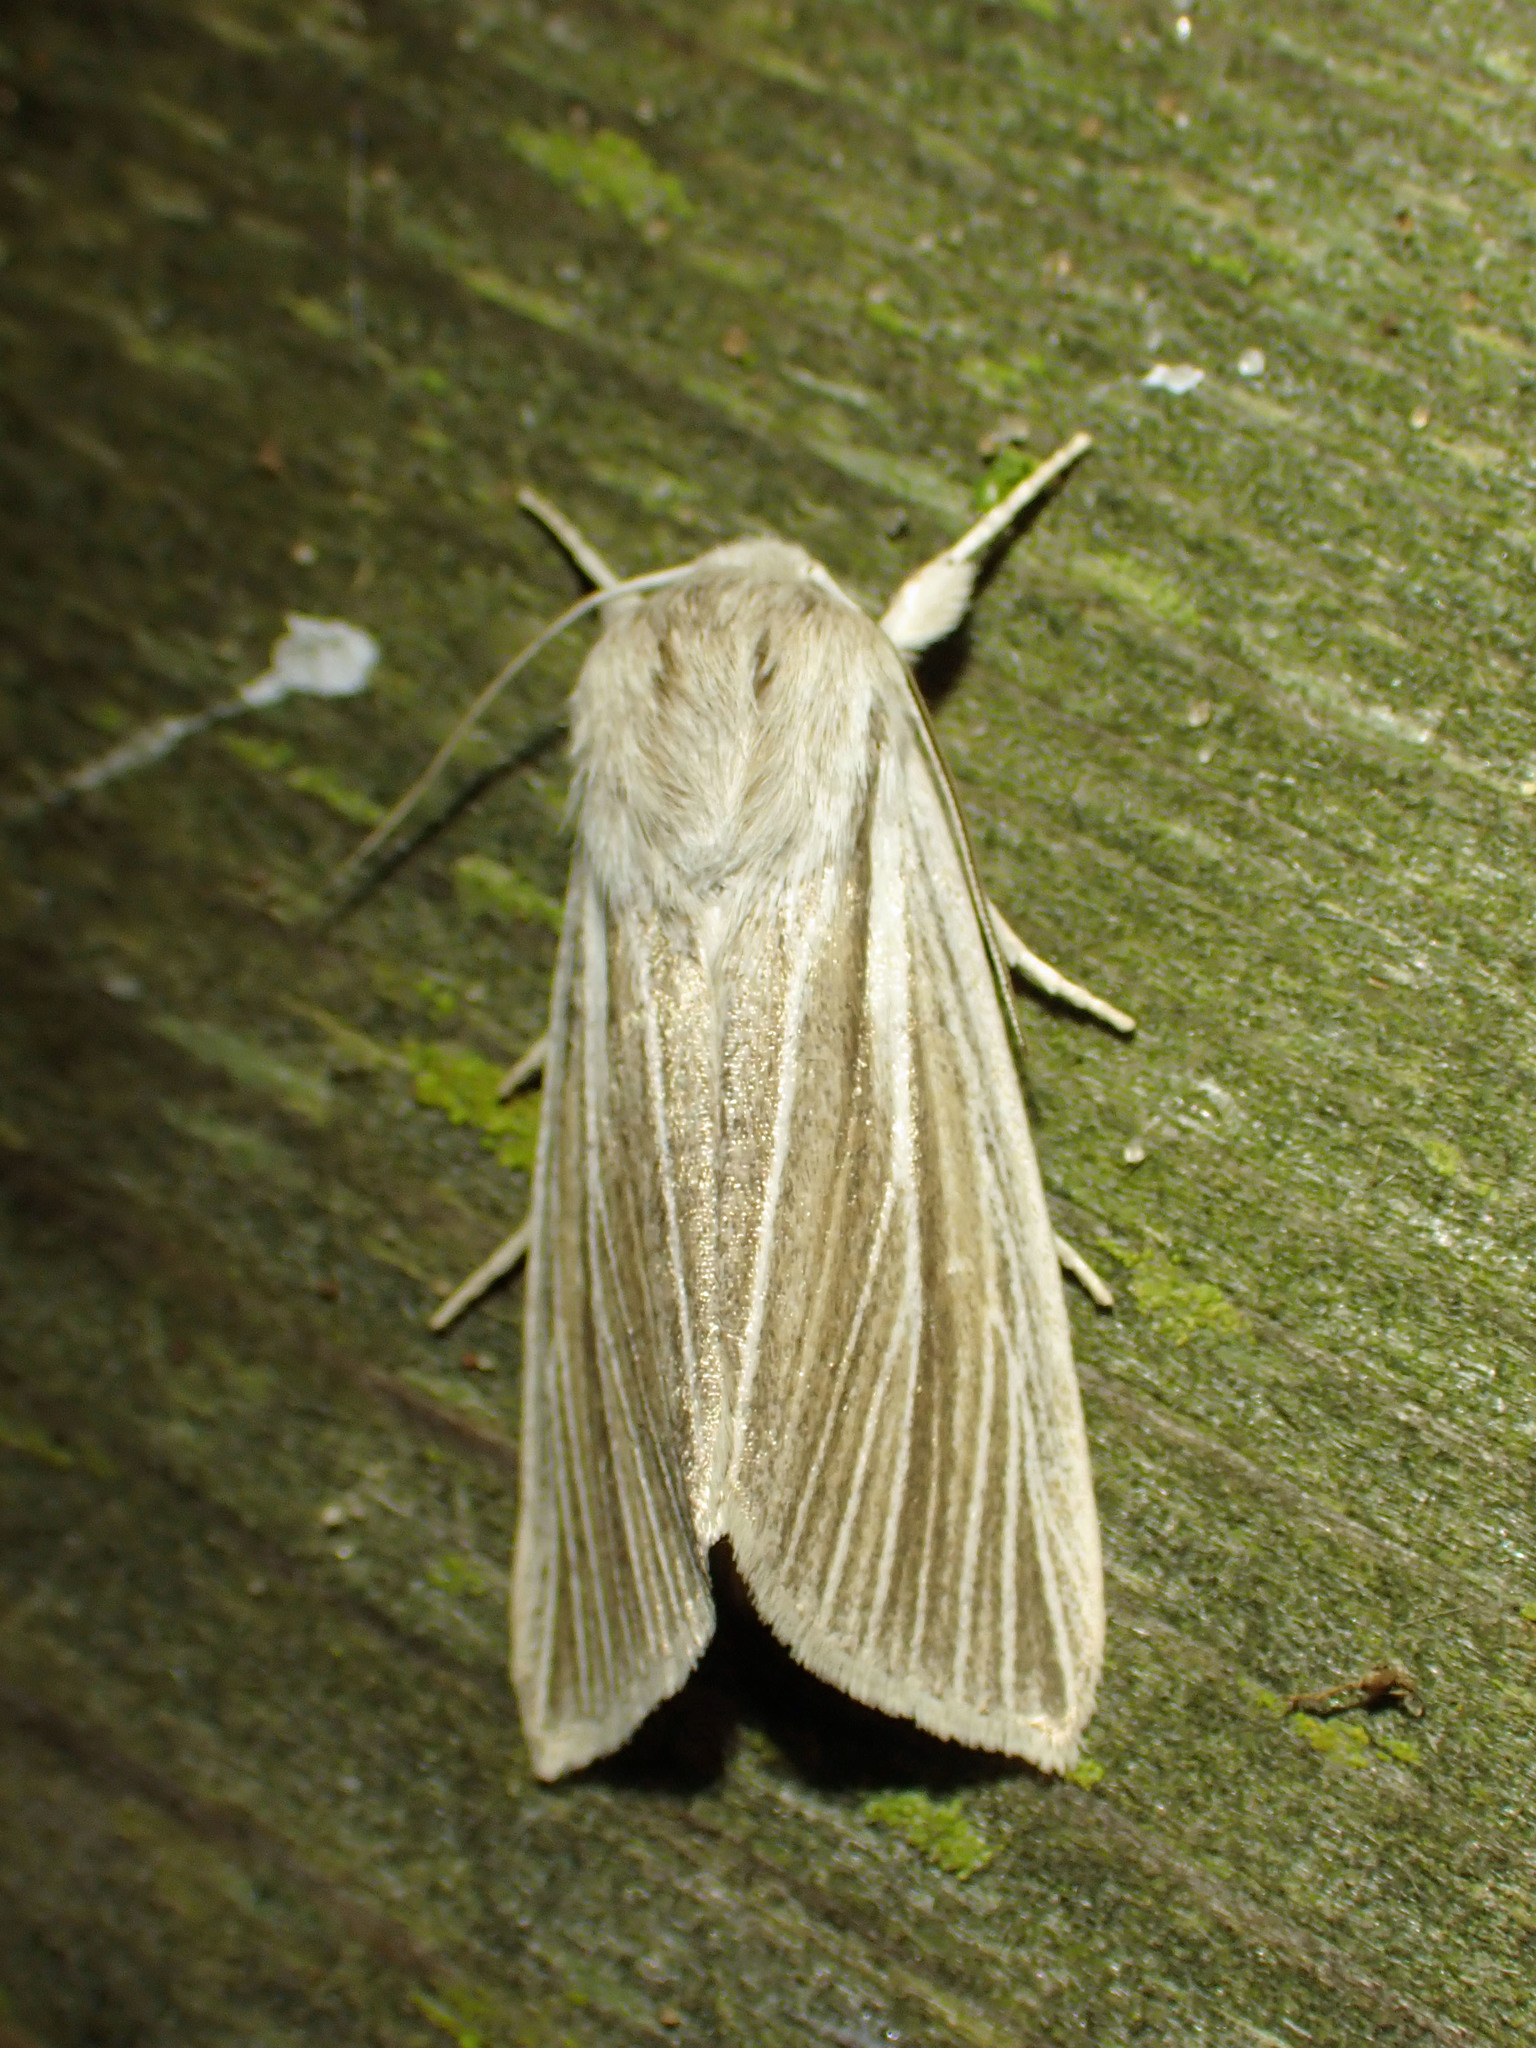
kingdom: Animalia
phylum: Arthropoda
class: Insecta
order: Lepidoptera
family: Noctuidae
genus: Acronicta
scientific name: Acronicta insularis
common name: Henry's marsh moth
